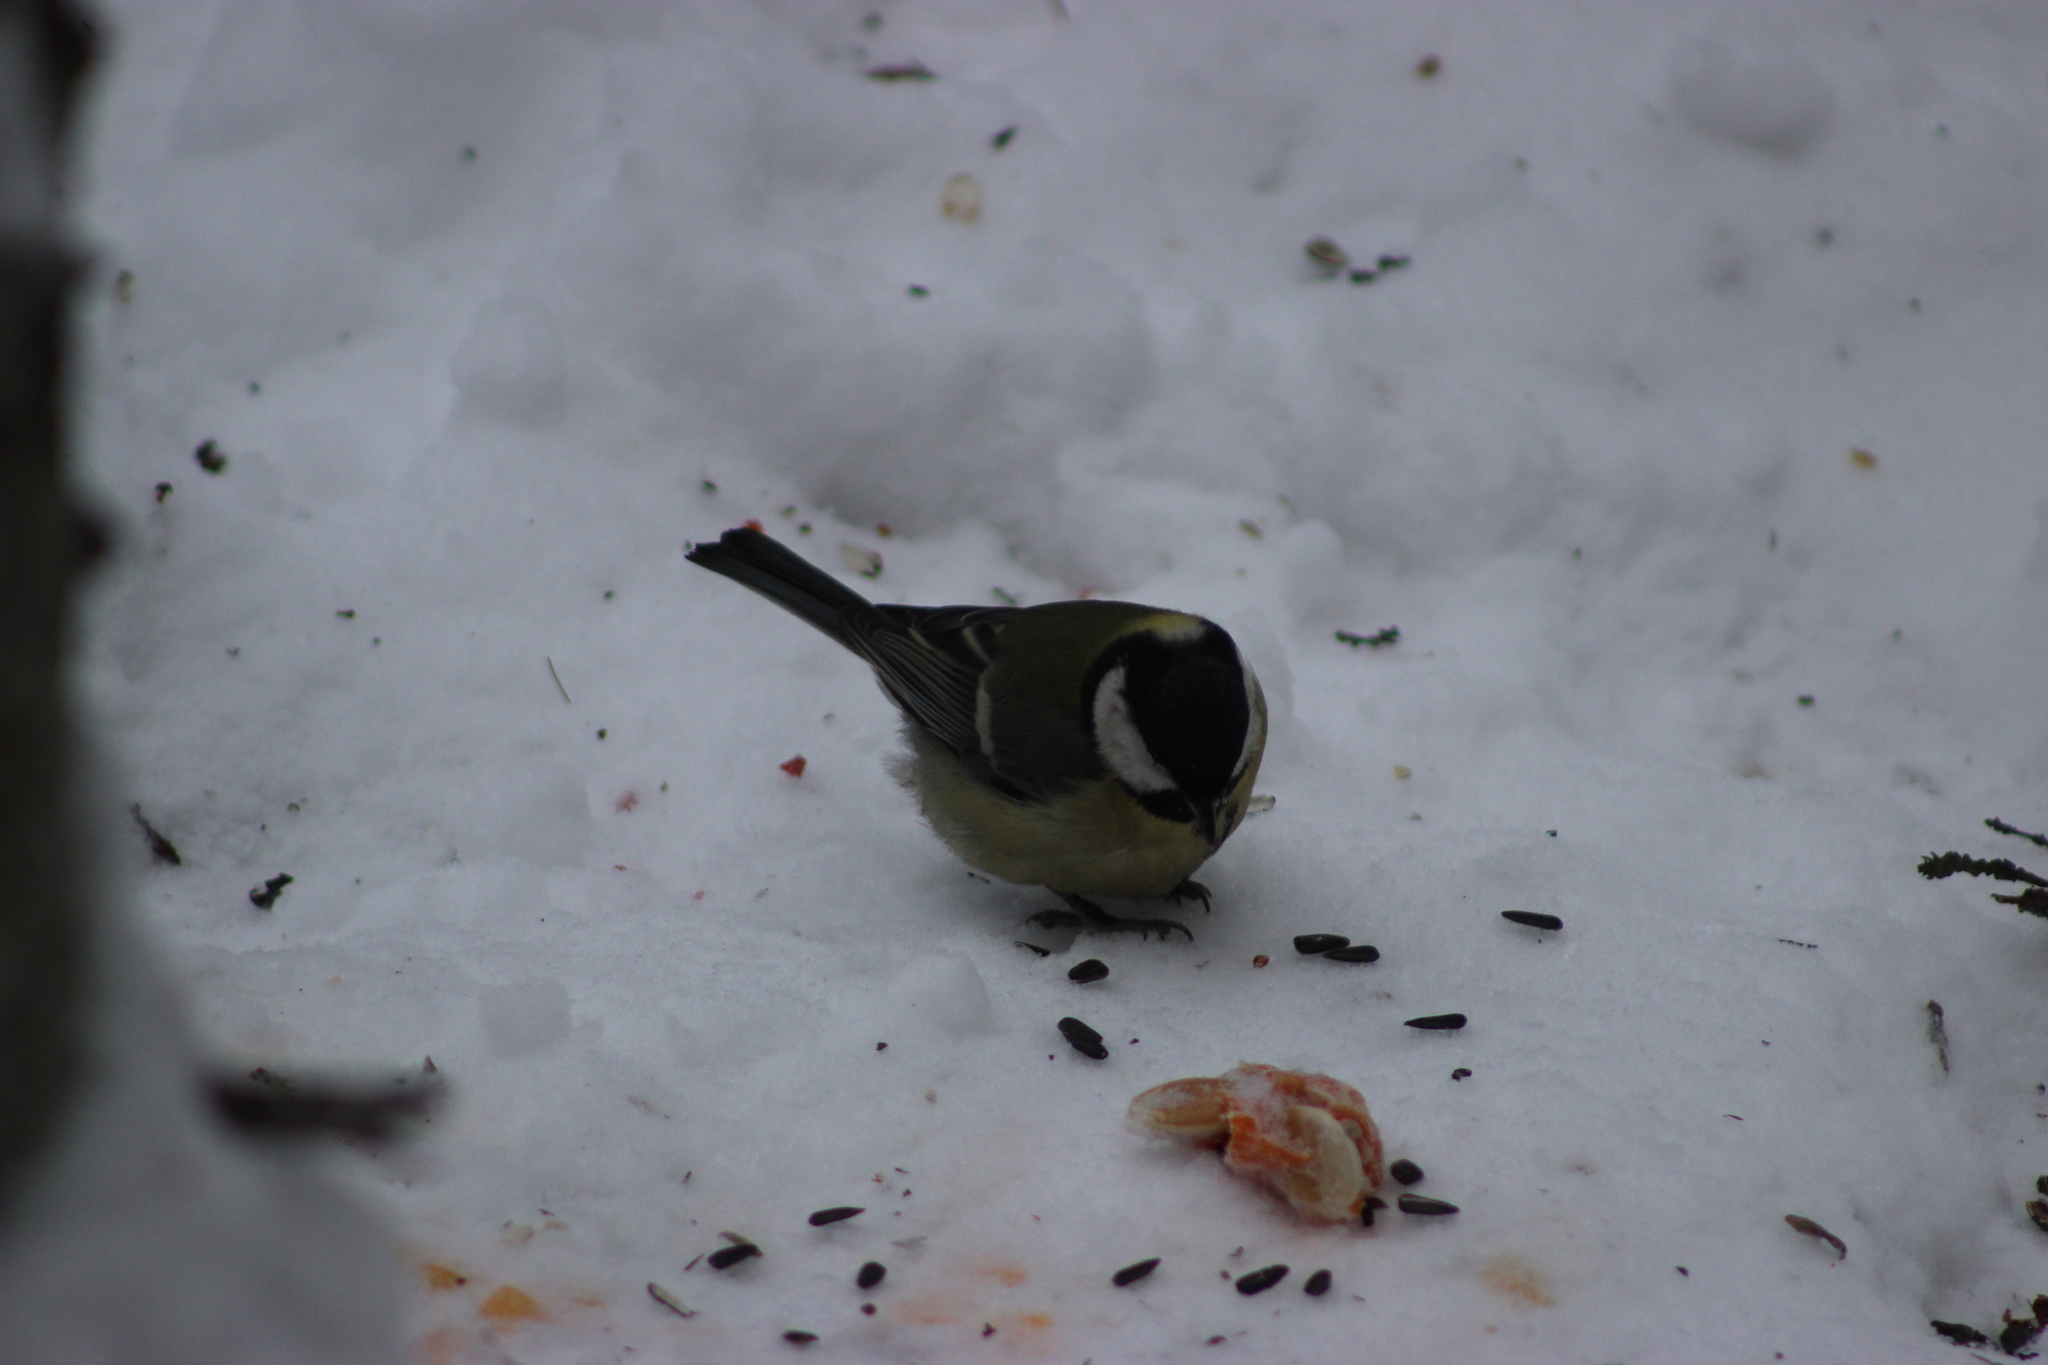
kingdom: Animalia
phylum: Chordata
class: Aves
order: Passeriformes
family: Paridae
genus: Parus
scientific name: Parus major
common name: Great tit
